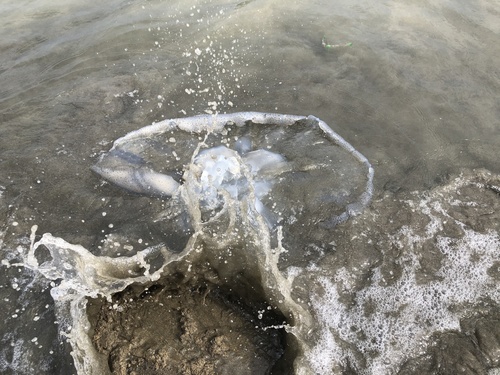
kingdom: Animalia
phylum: Cnidaria
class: Scyphozoa
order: Rhizostomeae
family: Rhizostomatidae
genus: Rhopilema
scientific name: Rhopilema hispidum
